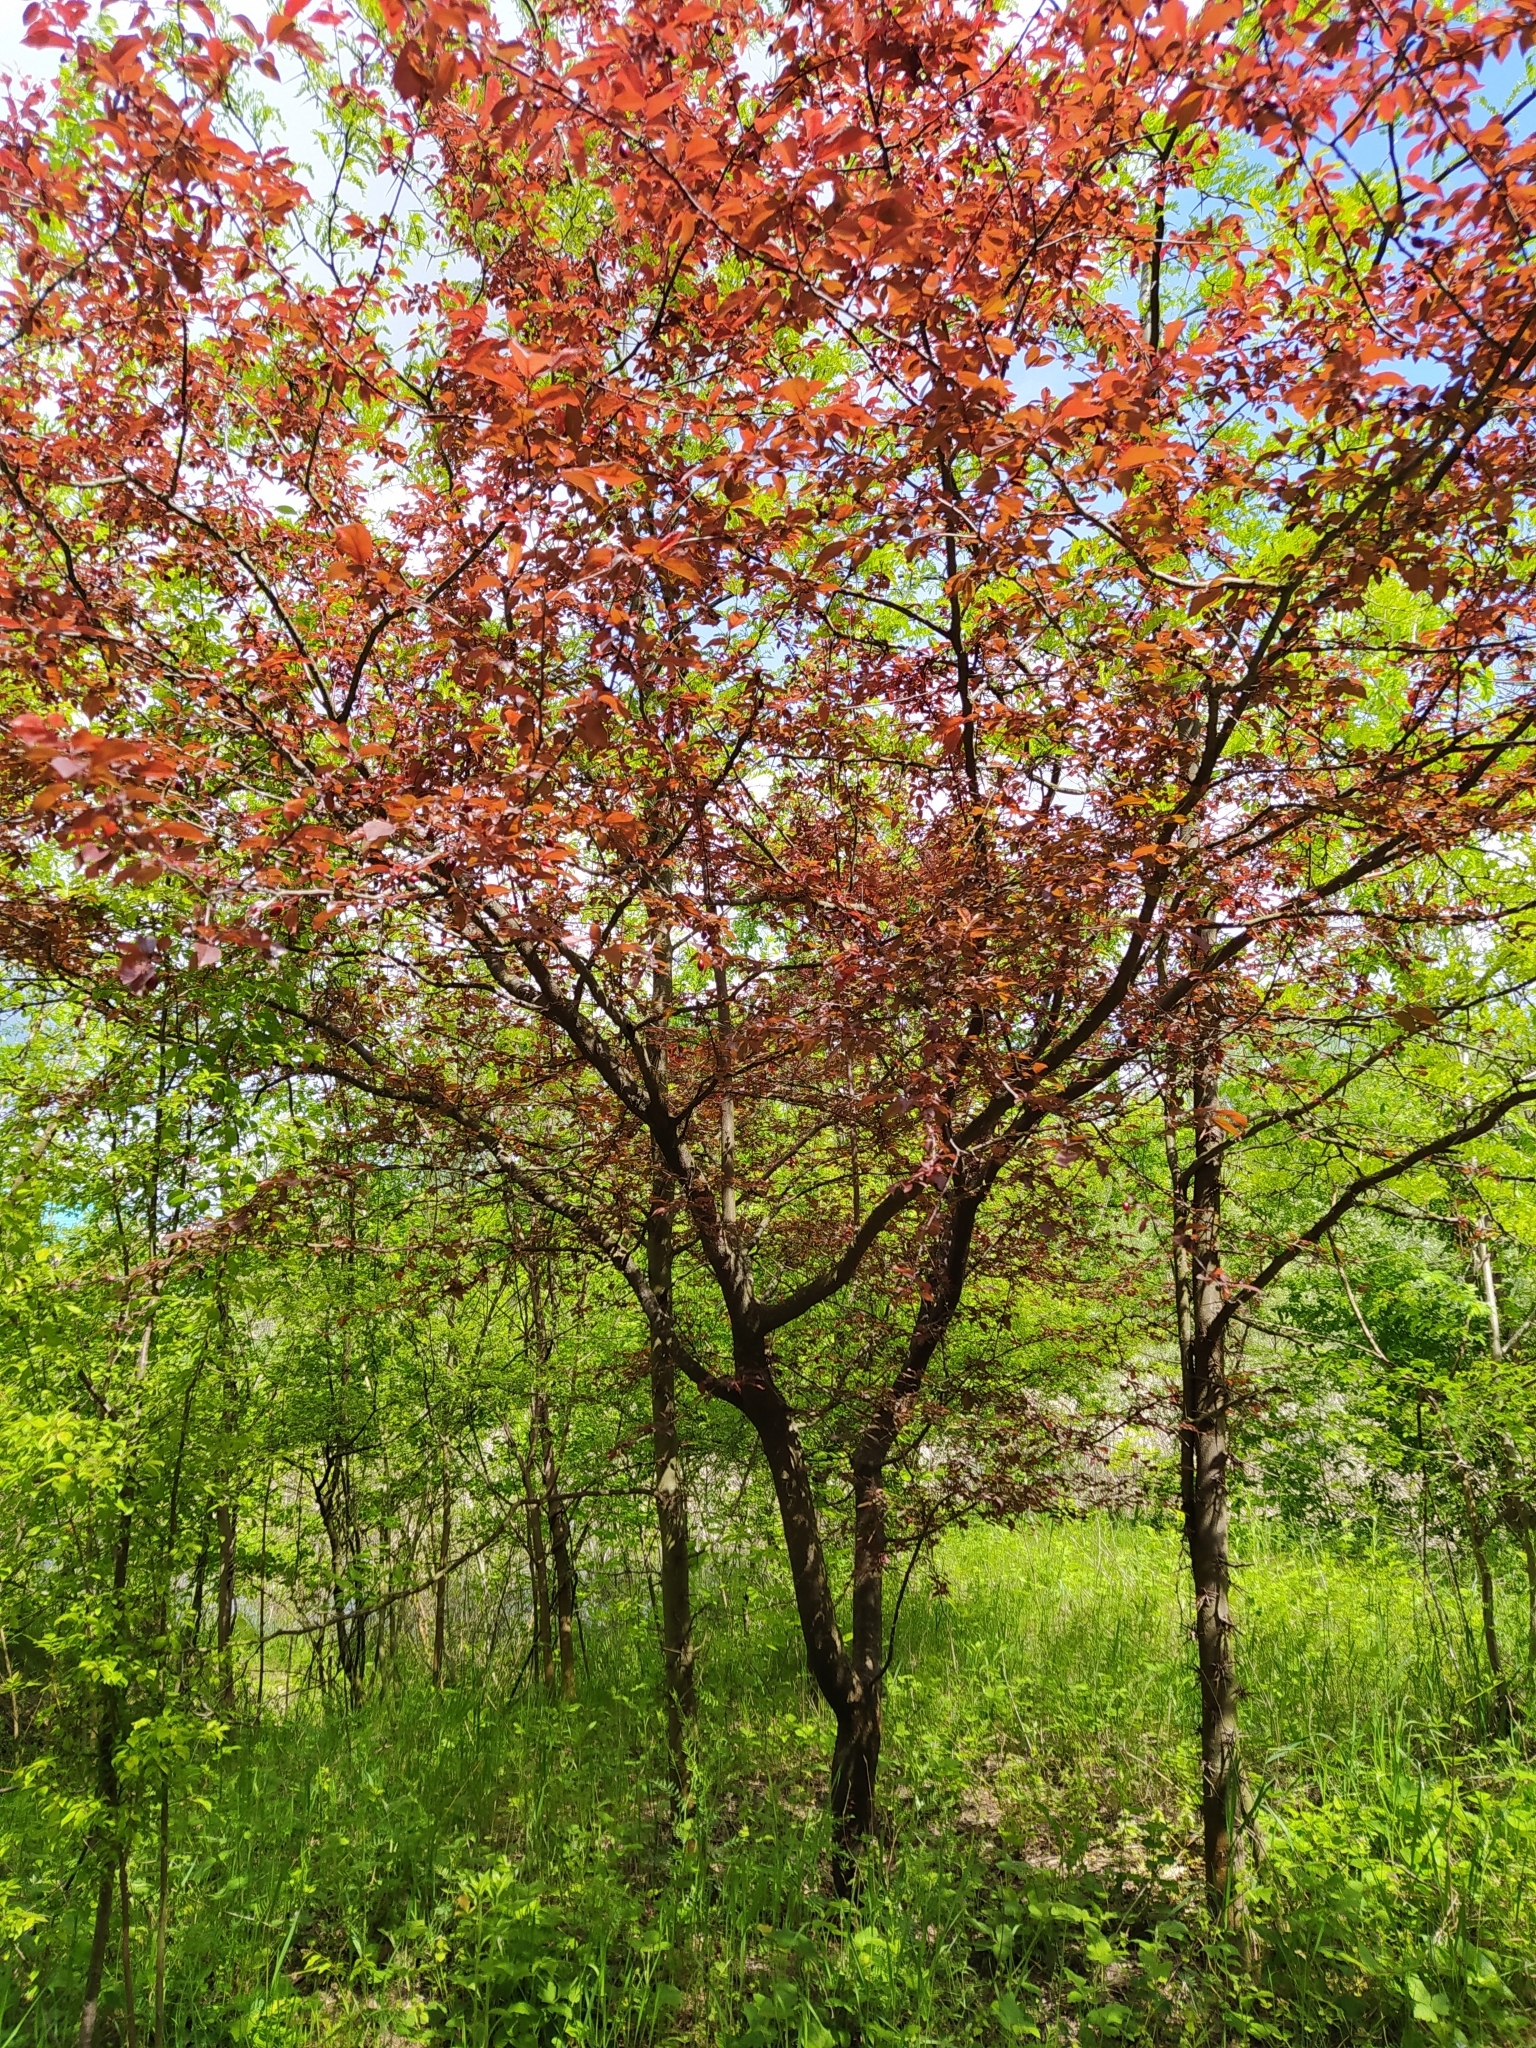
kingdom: Plantae
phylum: Tracheophyta
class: Magnoliopsida
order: Rosales
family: Rosaceae
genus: Prunus
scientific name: Prunus cerasifera
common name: Cherry plum
